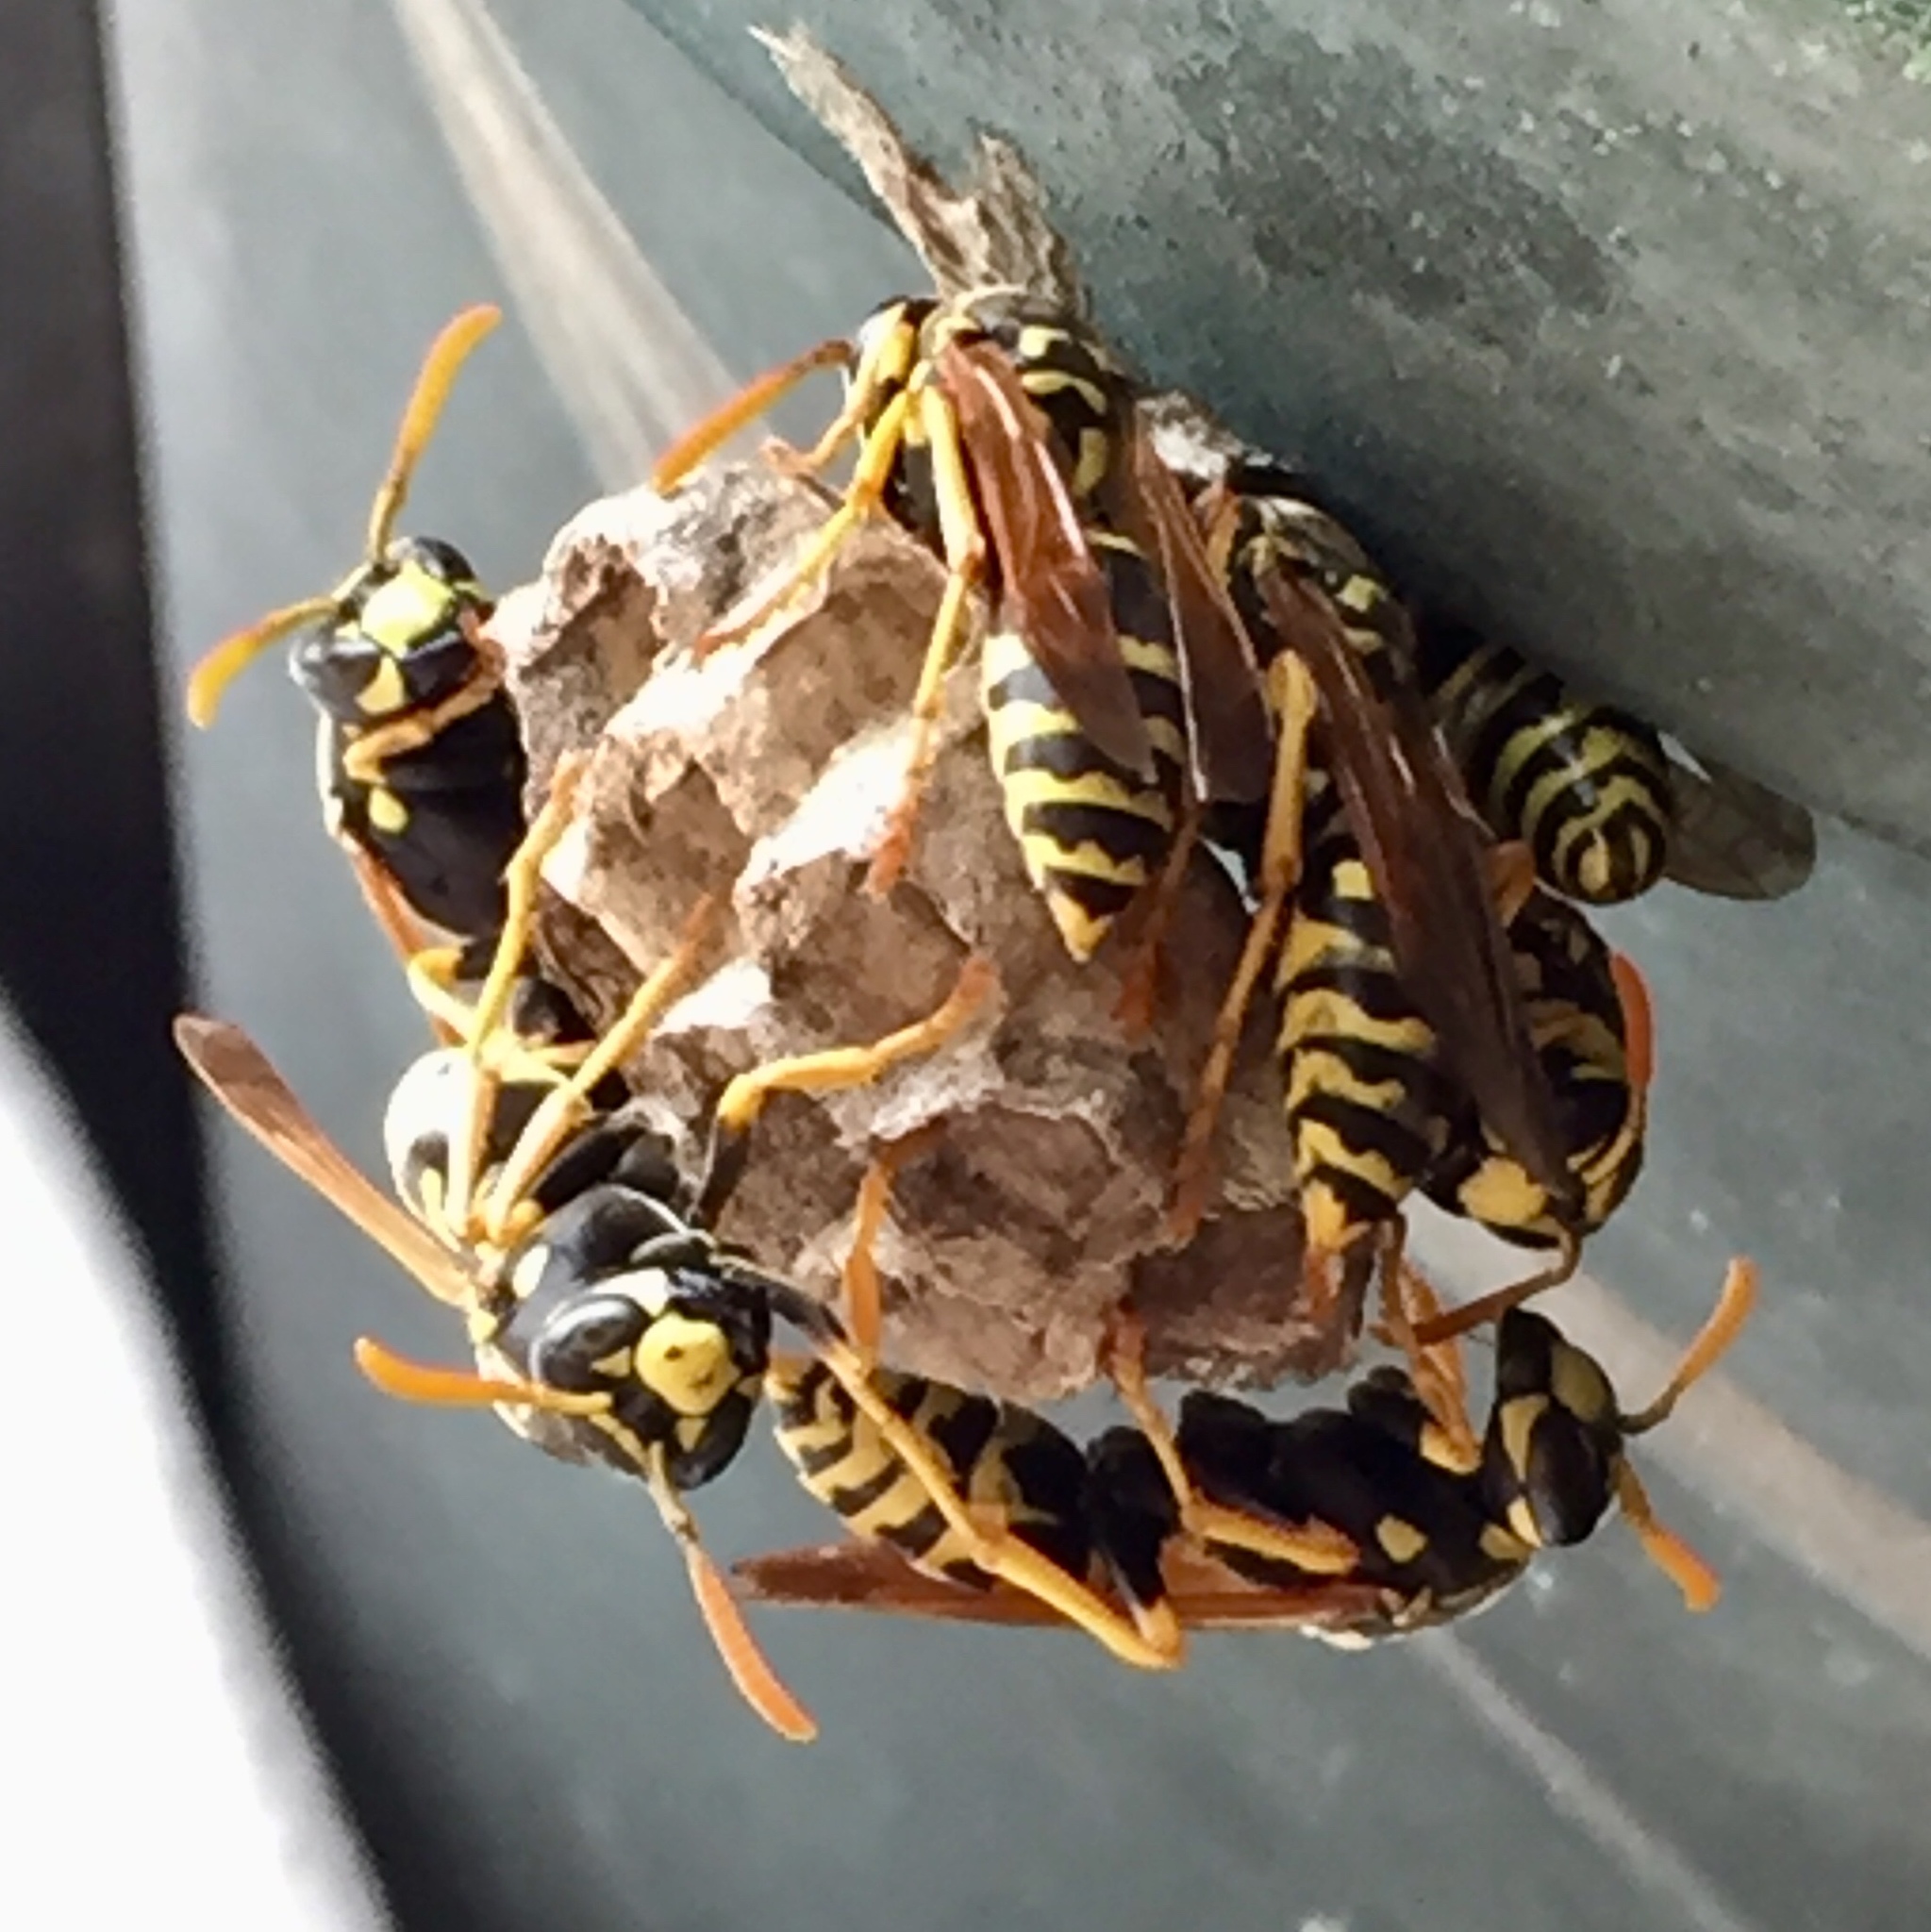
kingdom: Animalia
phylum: Arthropoda
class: Insecta
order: Hymenoptera
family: Eumenidae
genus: Polistes
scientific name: Polistes dominula
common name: Paper wasp
